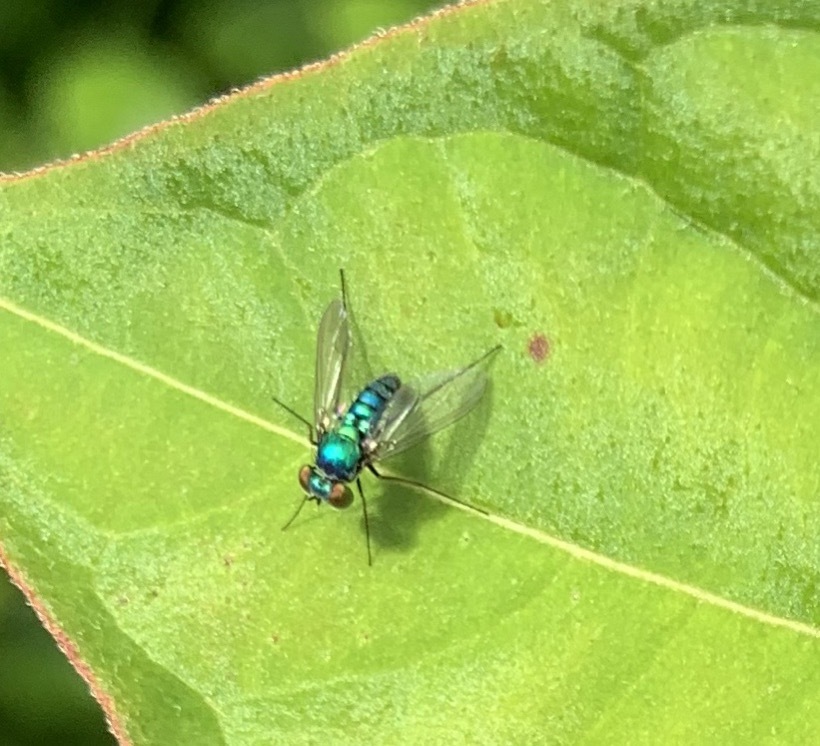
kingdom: Animalia
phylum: Arthropoda
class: Insecta
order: Diptera
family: Dolichopodidae
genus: Condylostylus
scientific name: Condylostylus purpureus
